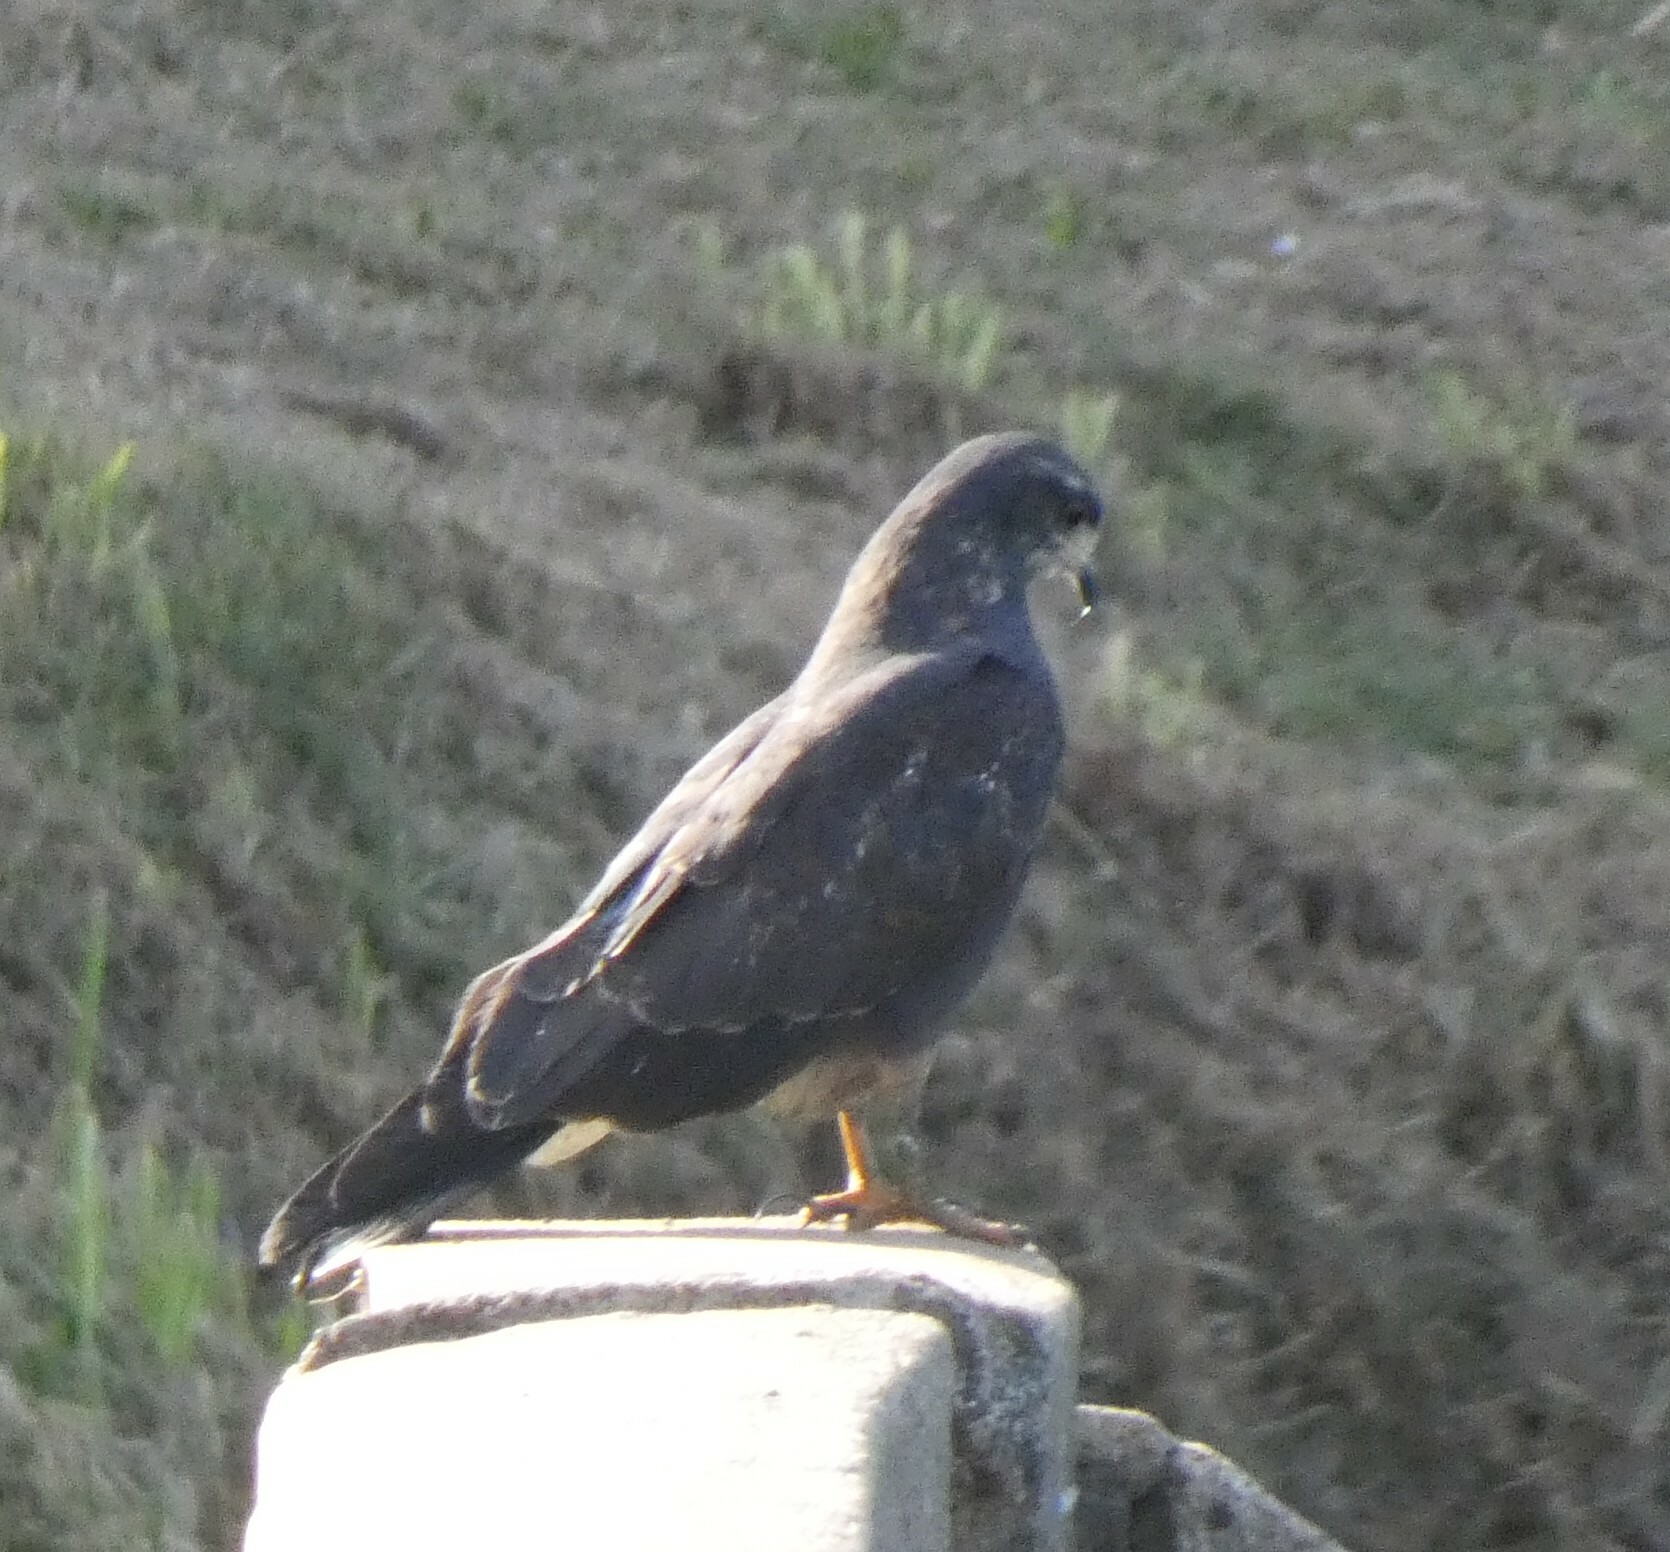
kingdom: Animalia
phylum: Chordata
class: Aves
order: Accipitriformes
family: Accipitridae
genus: Rostrhamus
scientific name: Rostrhamus sociabilis
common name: Snail kite
